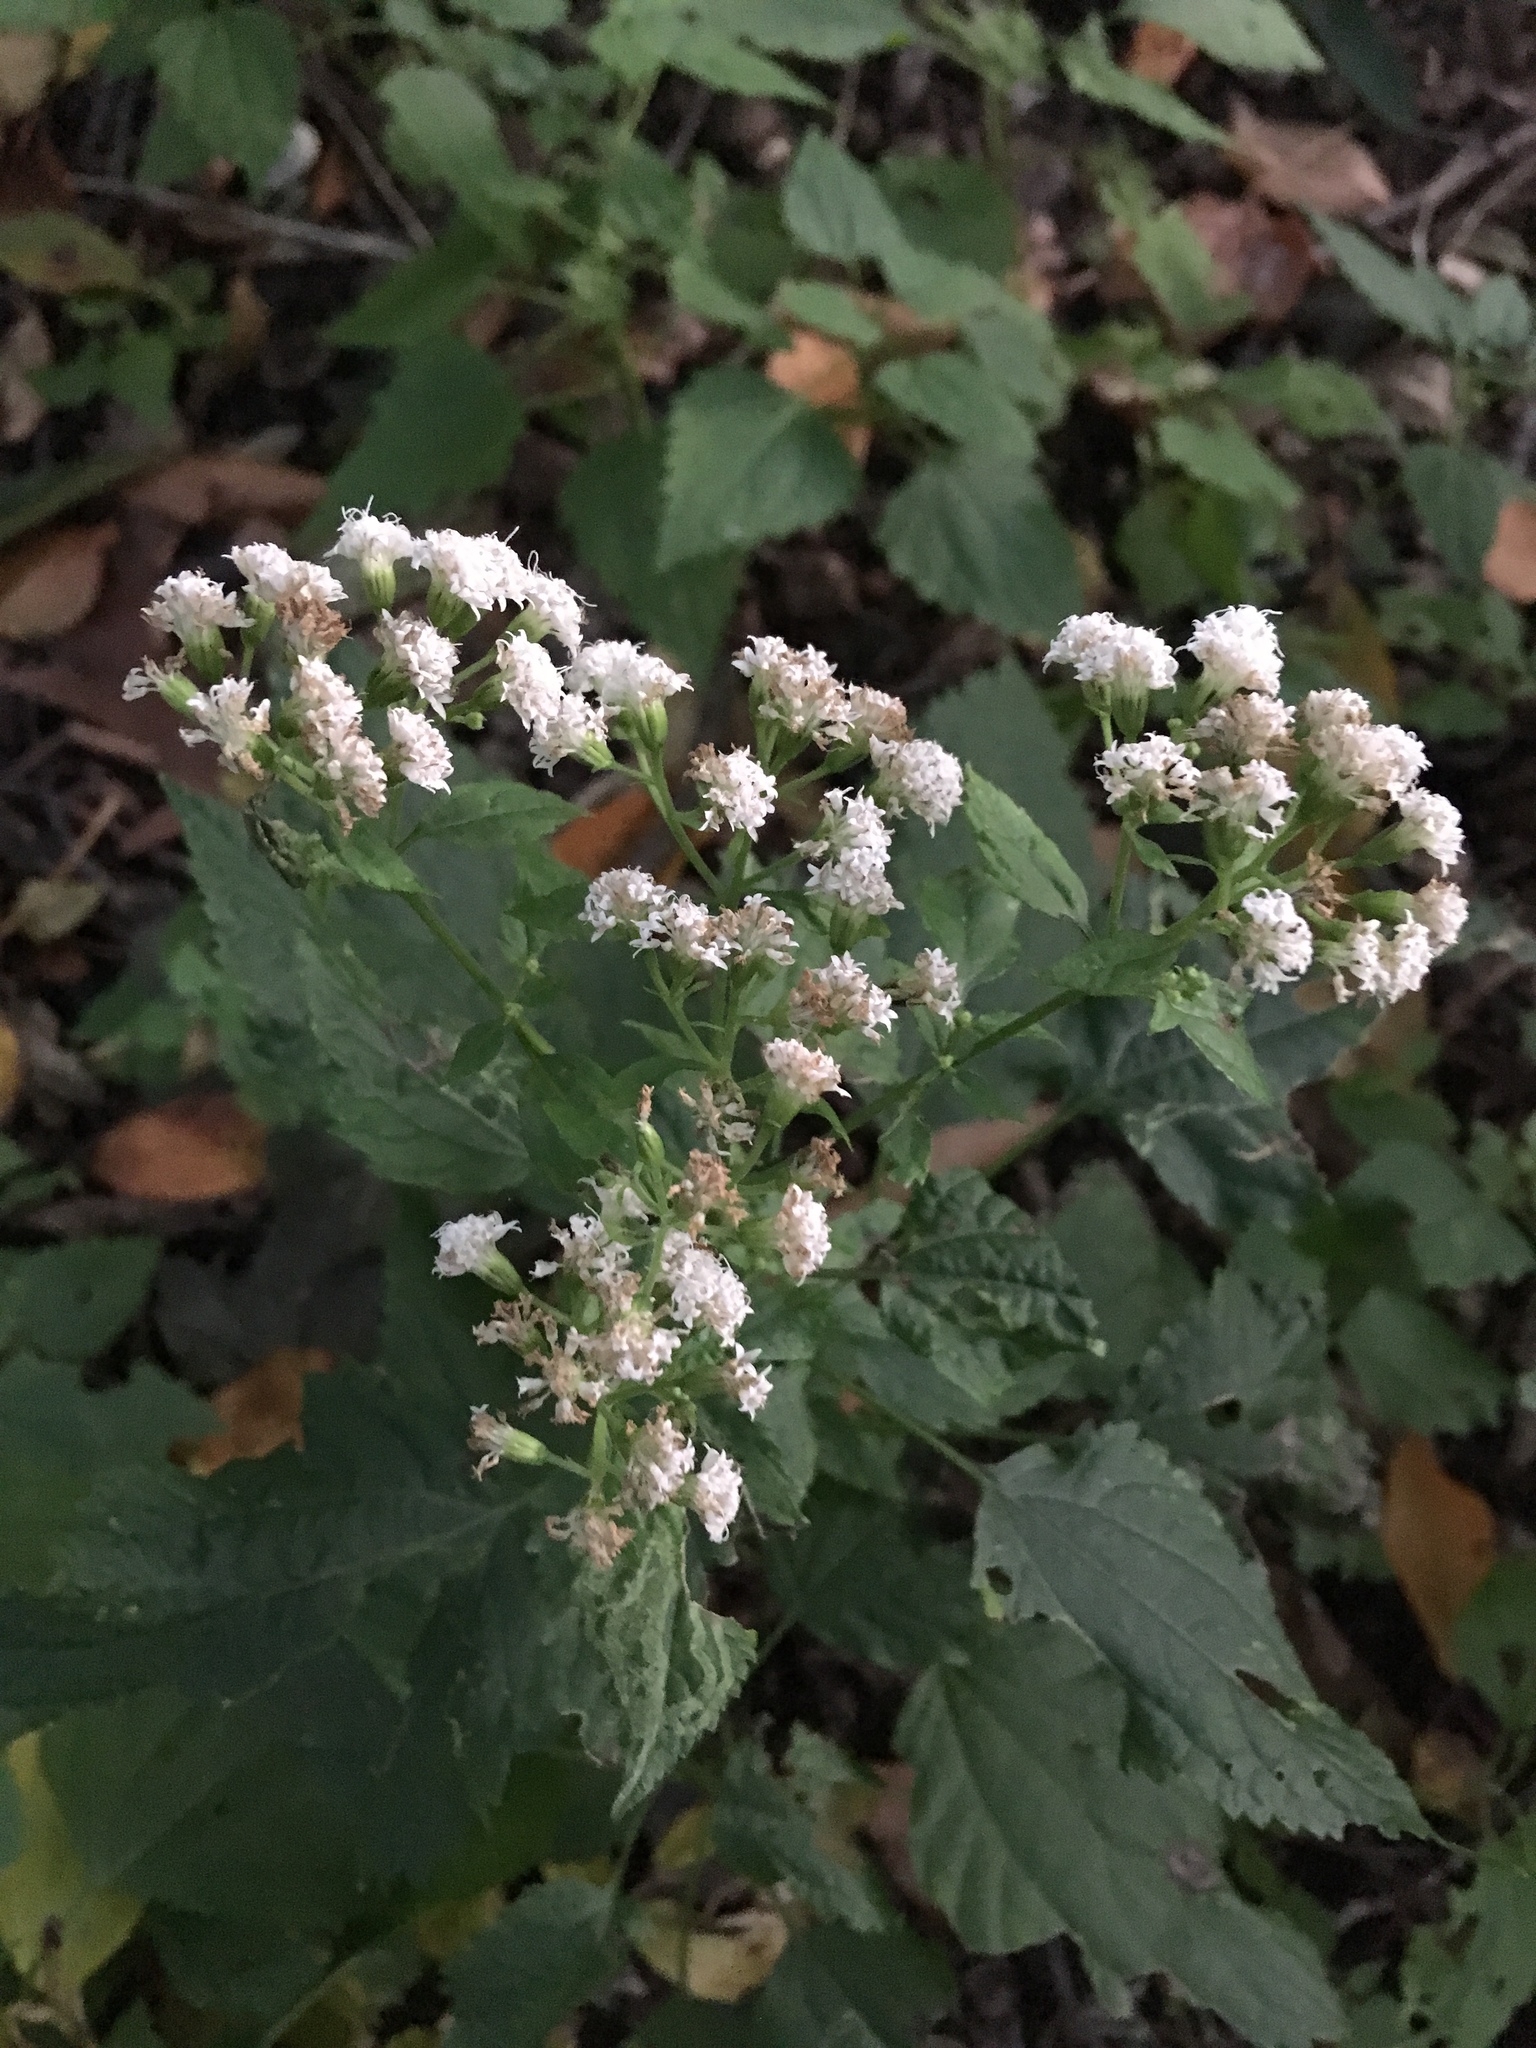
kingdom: Plantae
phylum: Tracheophyta
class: Magnoliopsida
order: Asterales
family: Asteraceae
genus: Ageratina
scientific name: Ageratina altissima
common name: White snakeroot
